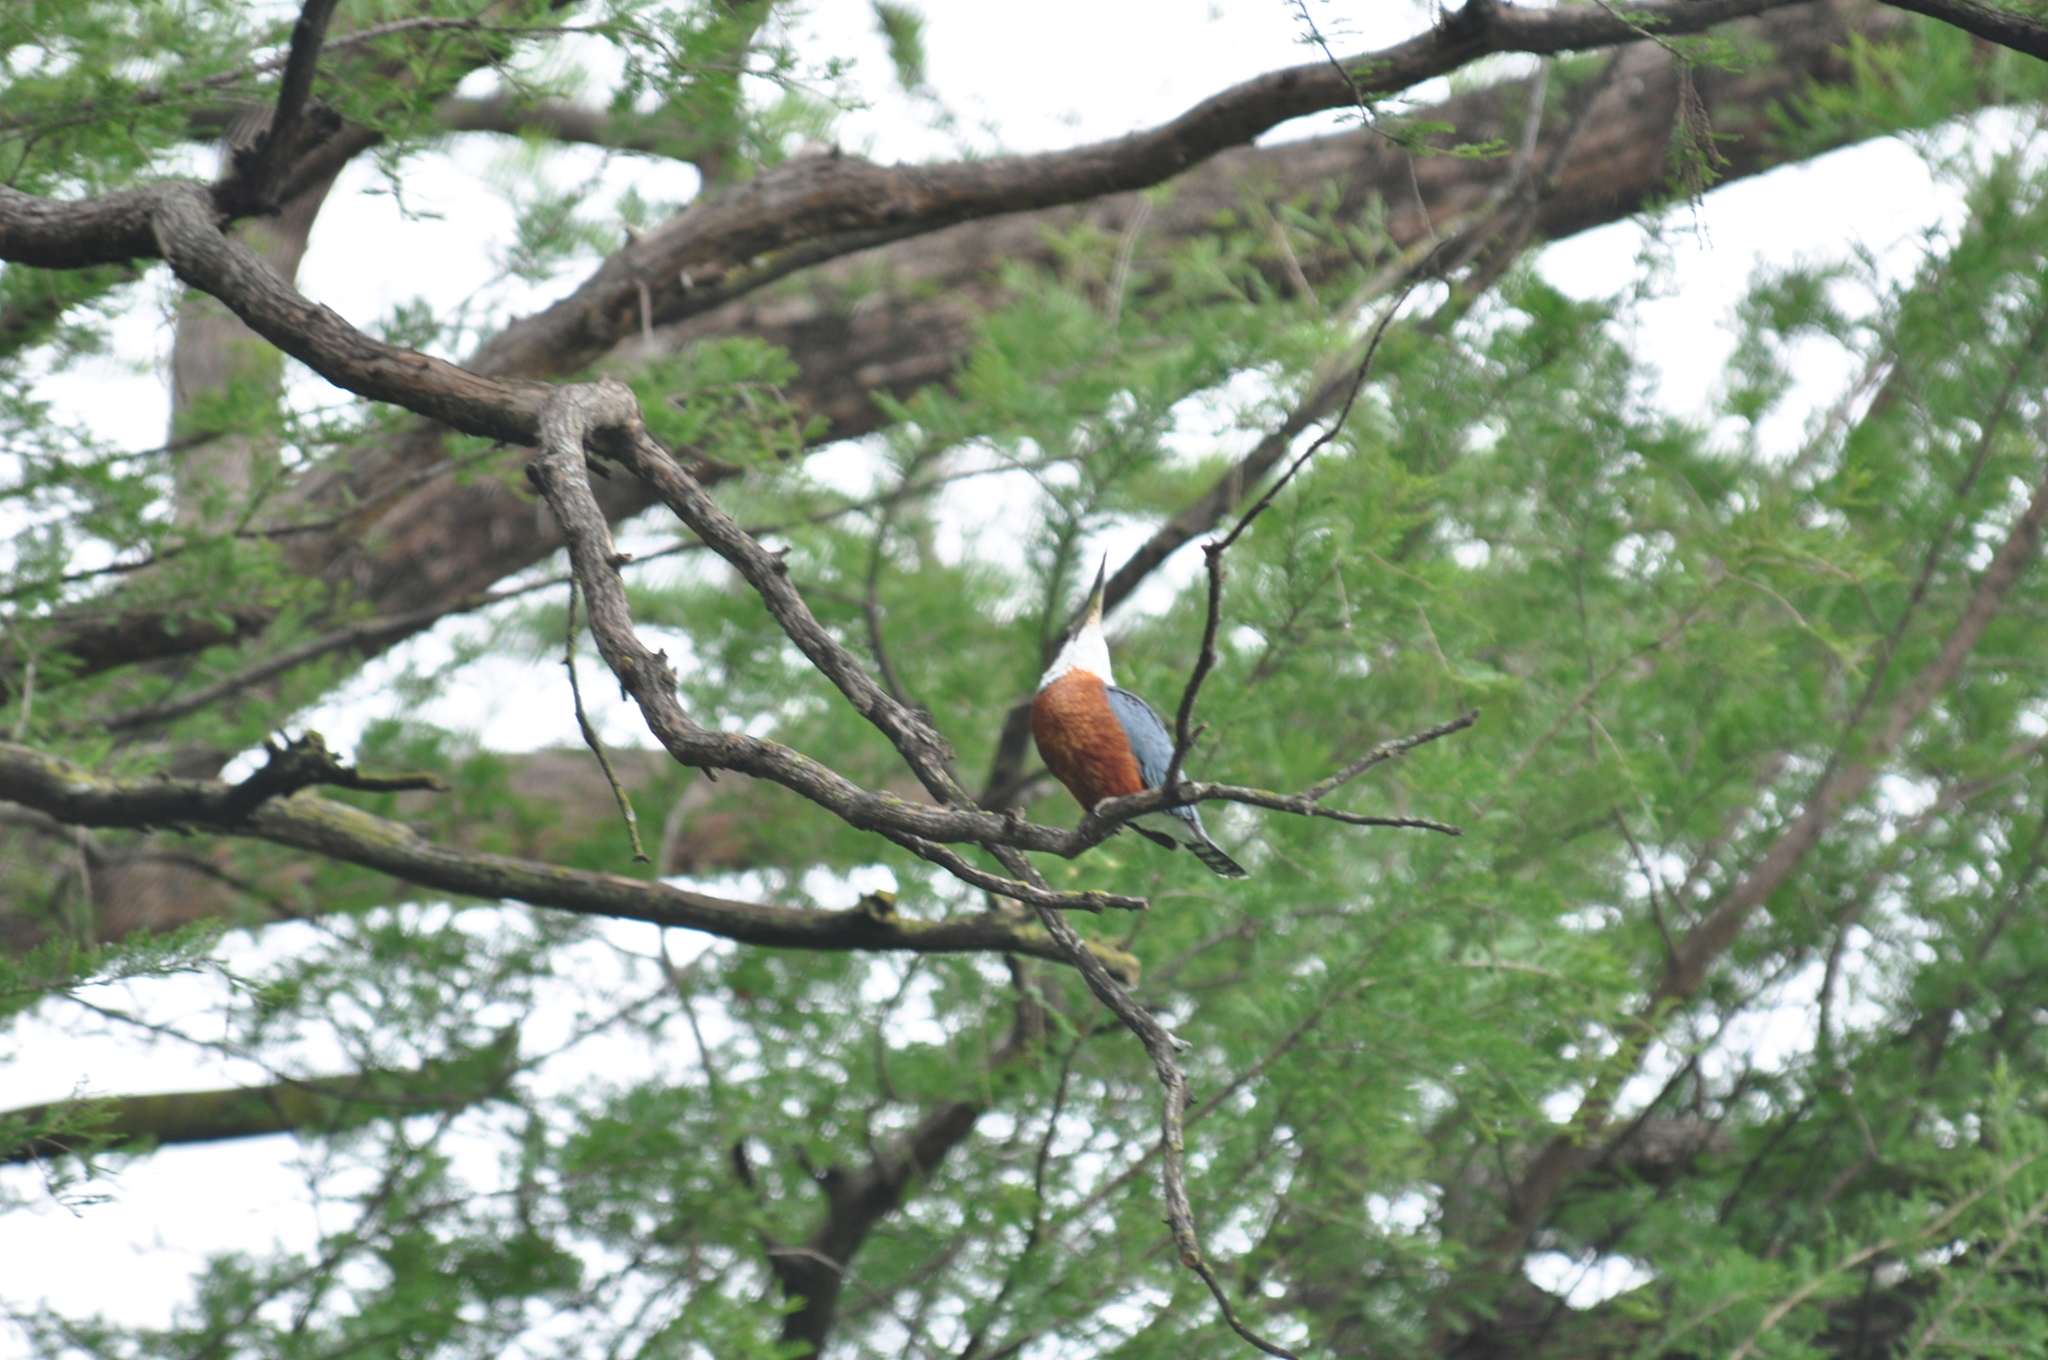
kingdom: Animalia
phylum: Chordata
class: Aves
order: Coraciiformes
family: Alcedinidae
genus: Megaceryle
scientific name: Megaceryle torquata
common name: Ringed kingfisher
